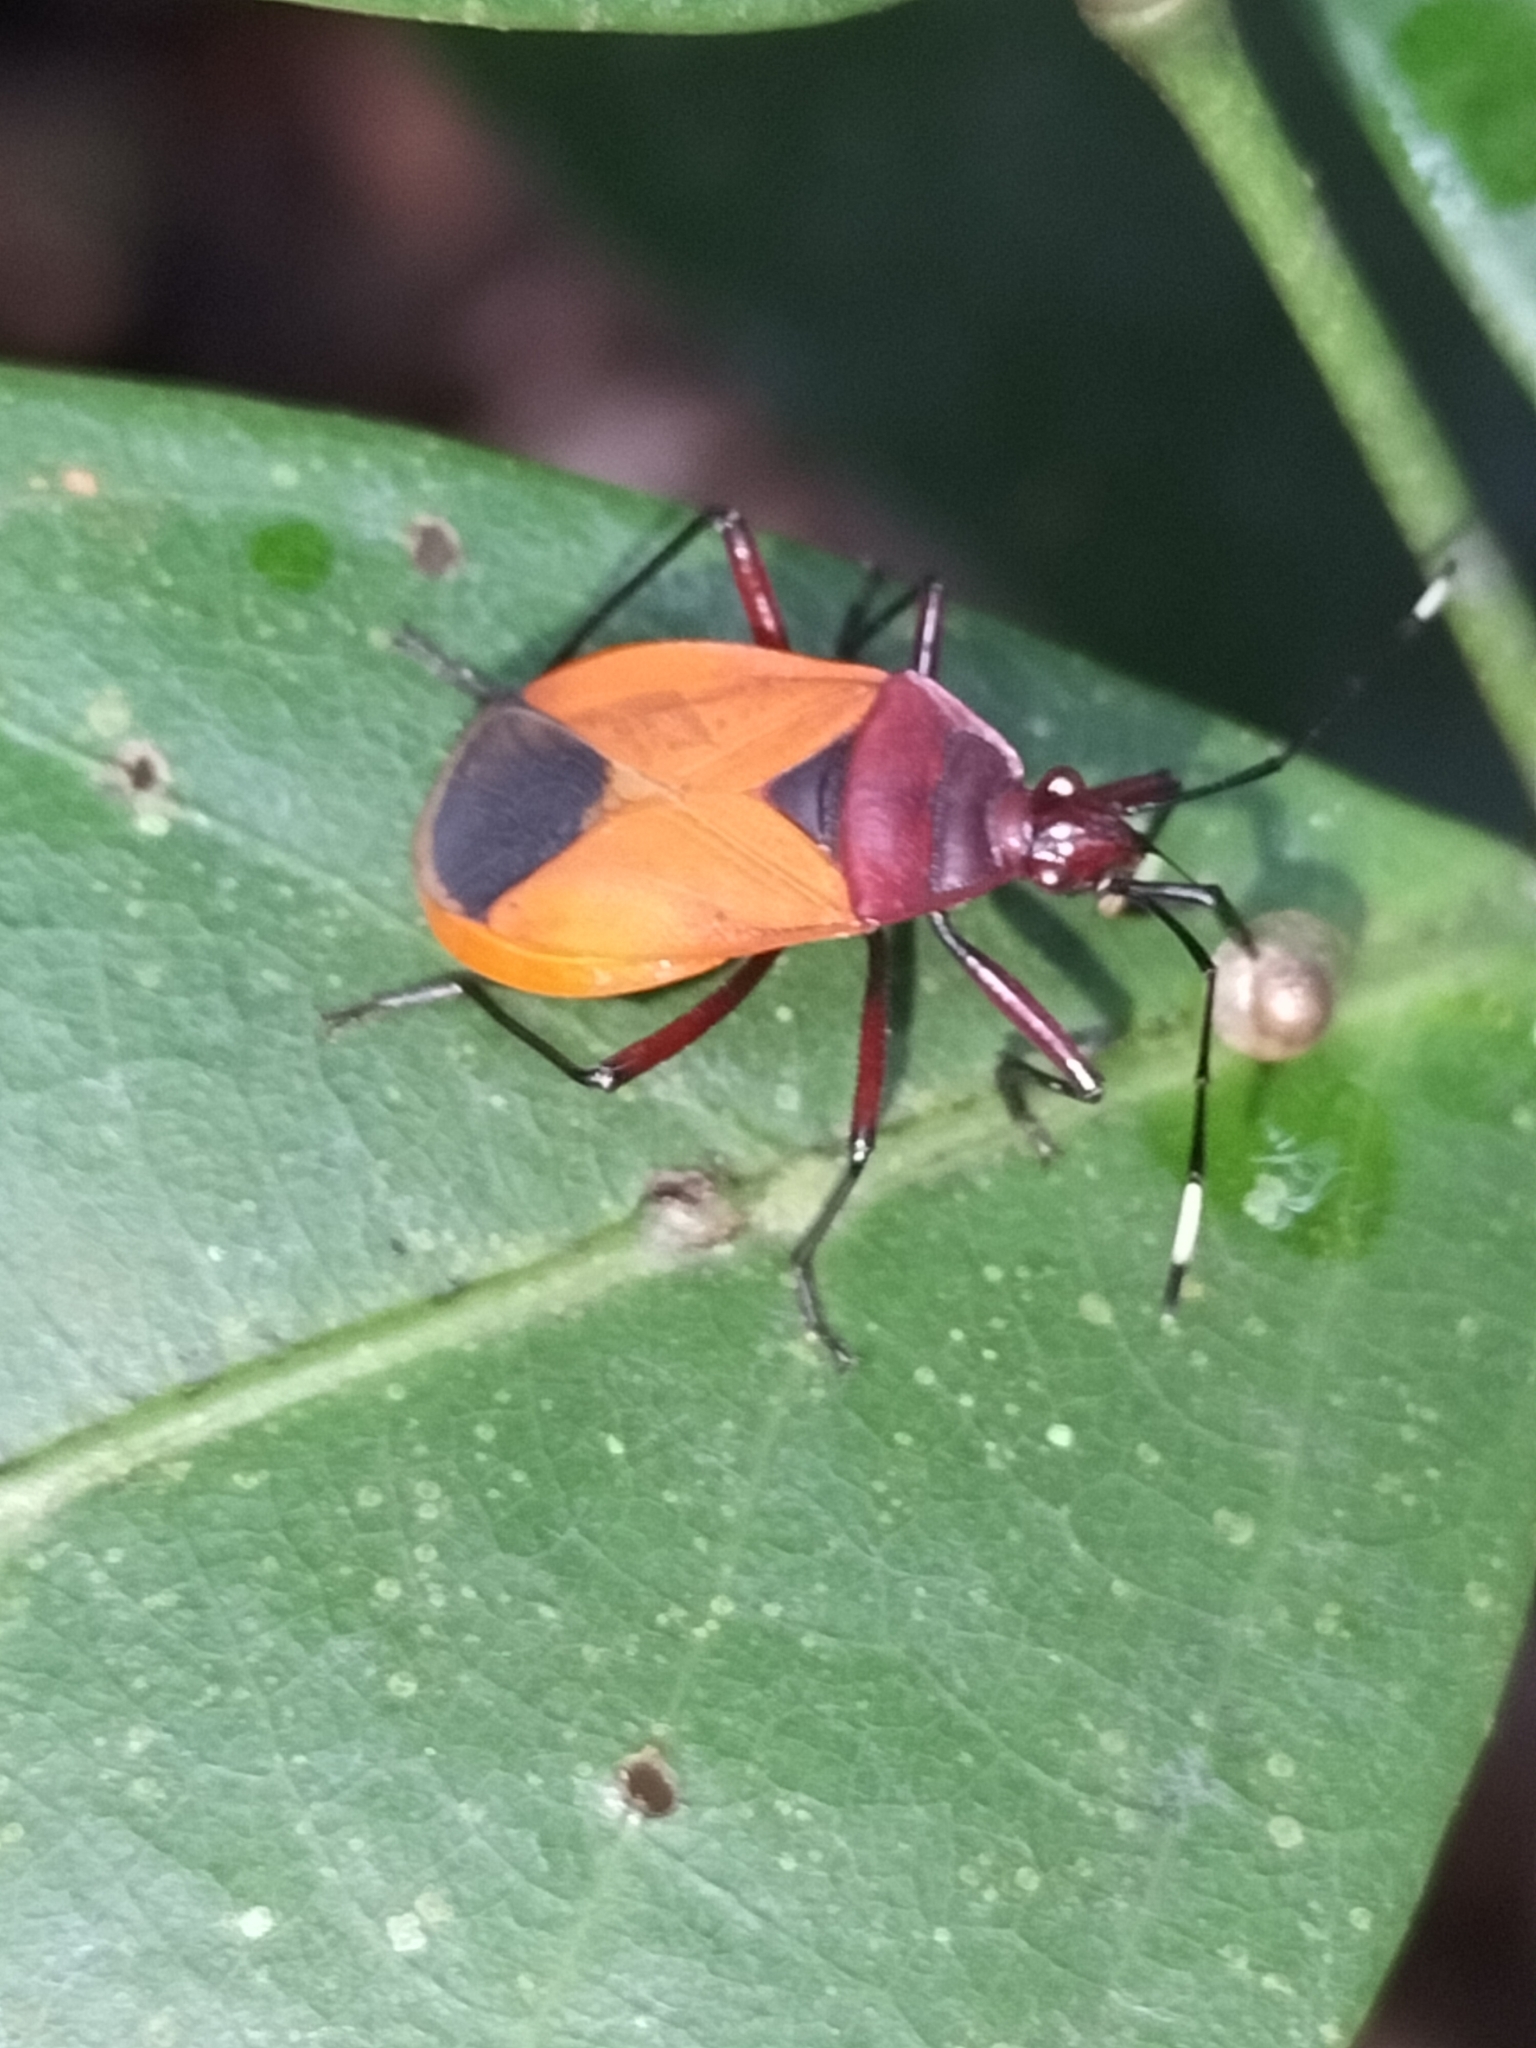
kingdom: Animalia
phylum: Arthropoda
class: Insecta
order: Hemiptera
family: Pyrrhocoridae
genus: Dindymus
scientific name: Dindymus
